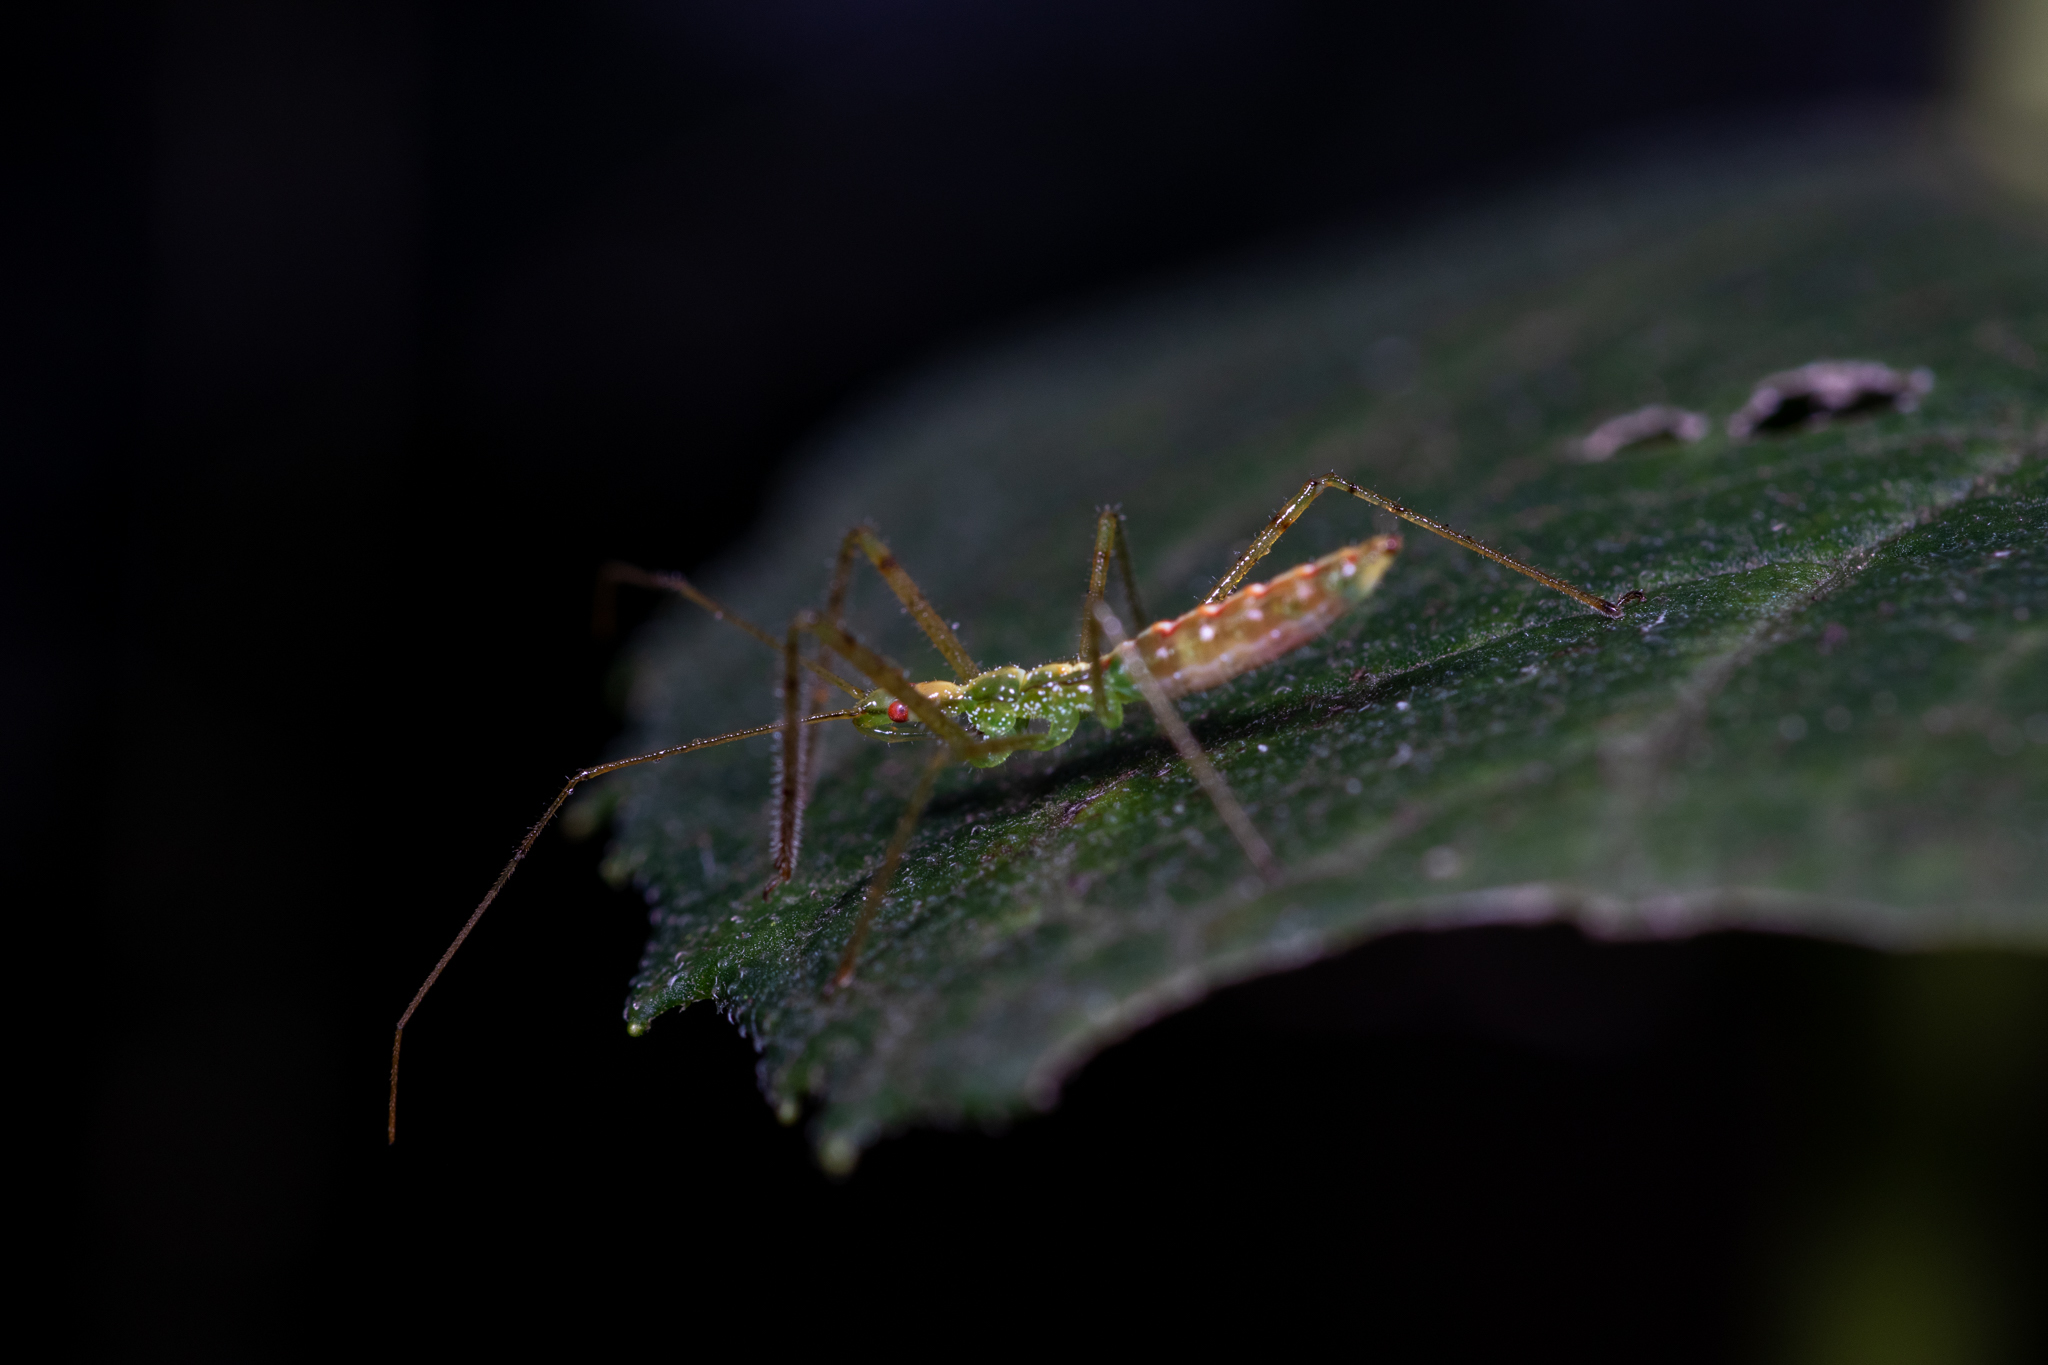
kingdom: Animalia
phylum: Arthropoda
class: Insecta
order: Hemiptera
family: Reduviidae
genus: Zelus
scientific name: Zelus luridus
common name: Pale green assassin bug
